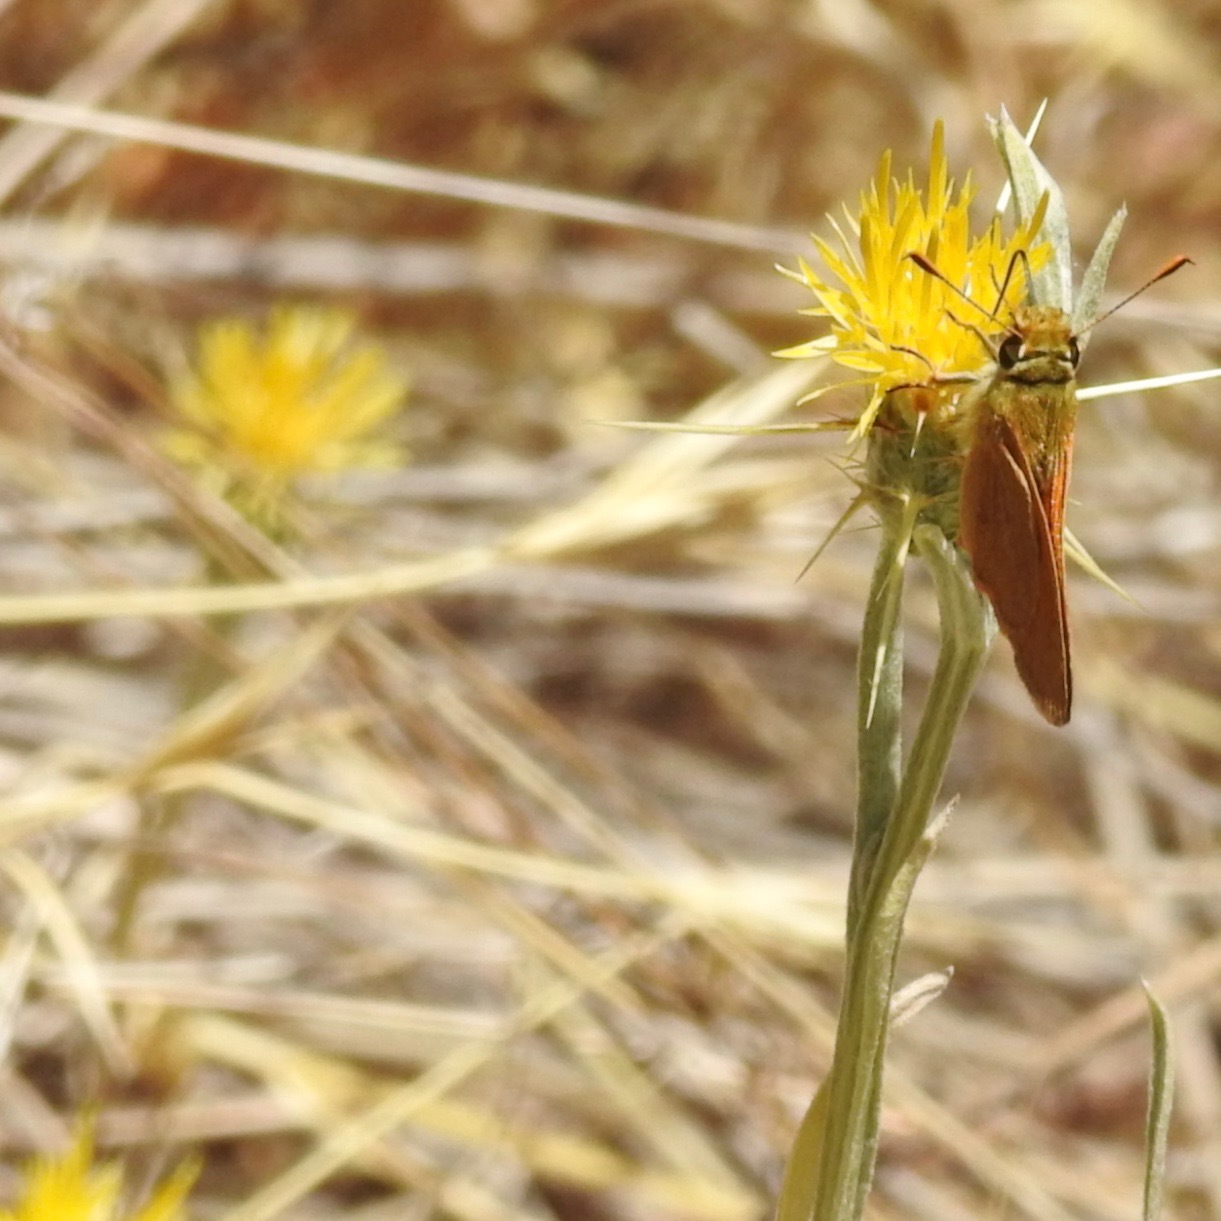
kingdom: Animalia
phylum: Arthropoda
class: Insecta
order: Lepidoptera
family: Hesperiidae
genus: Ochlodes
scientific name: Ochlodes sylvanoides
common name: Woodland skipper
